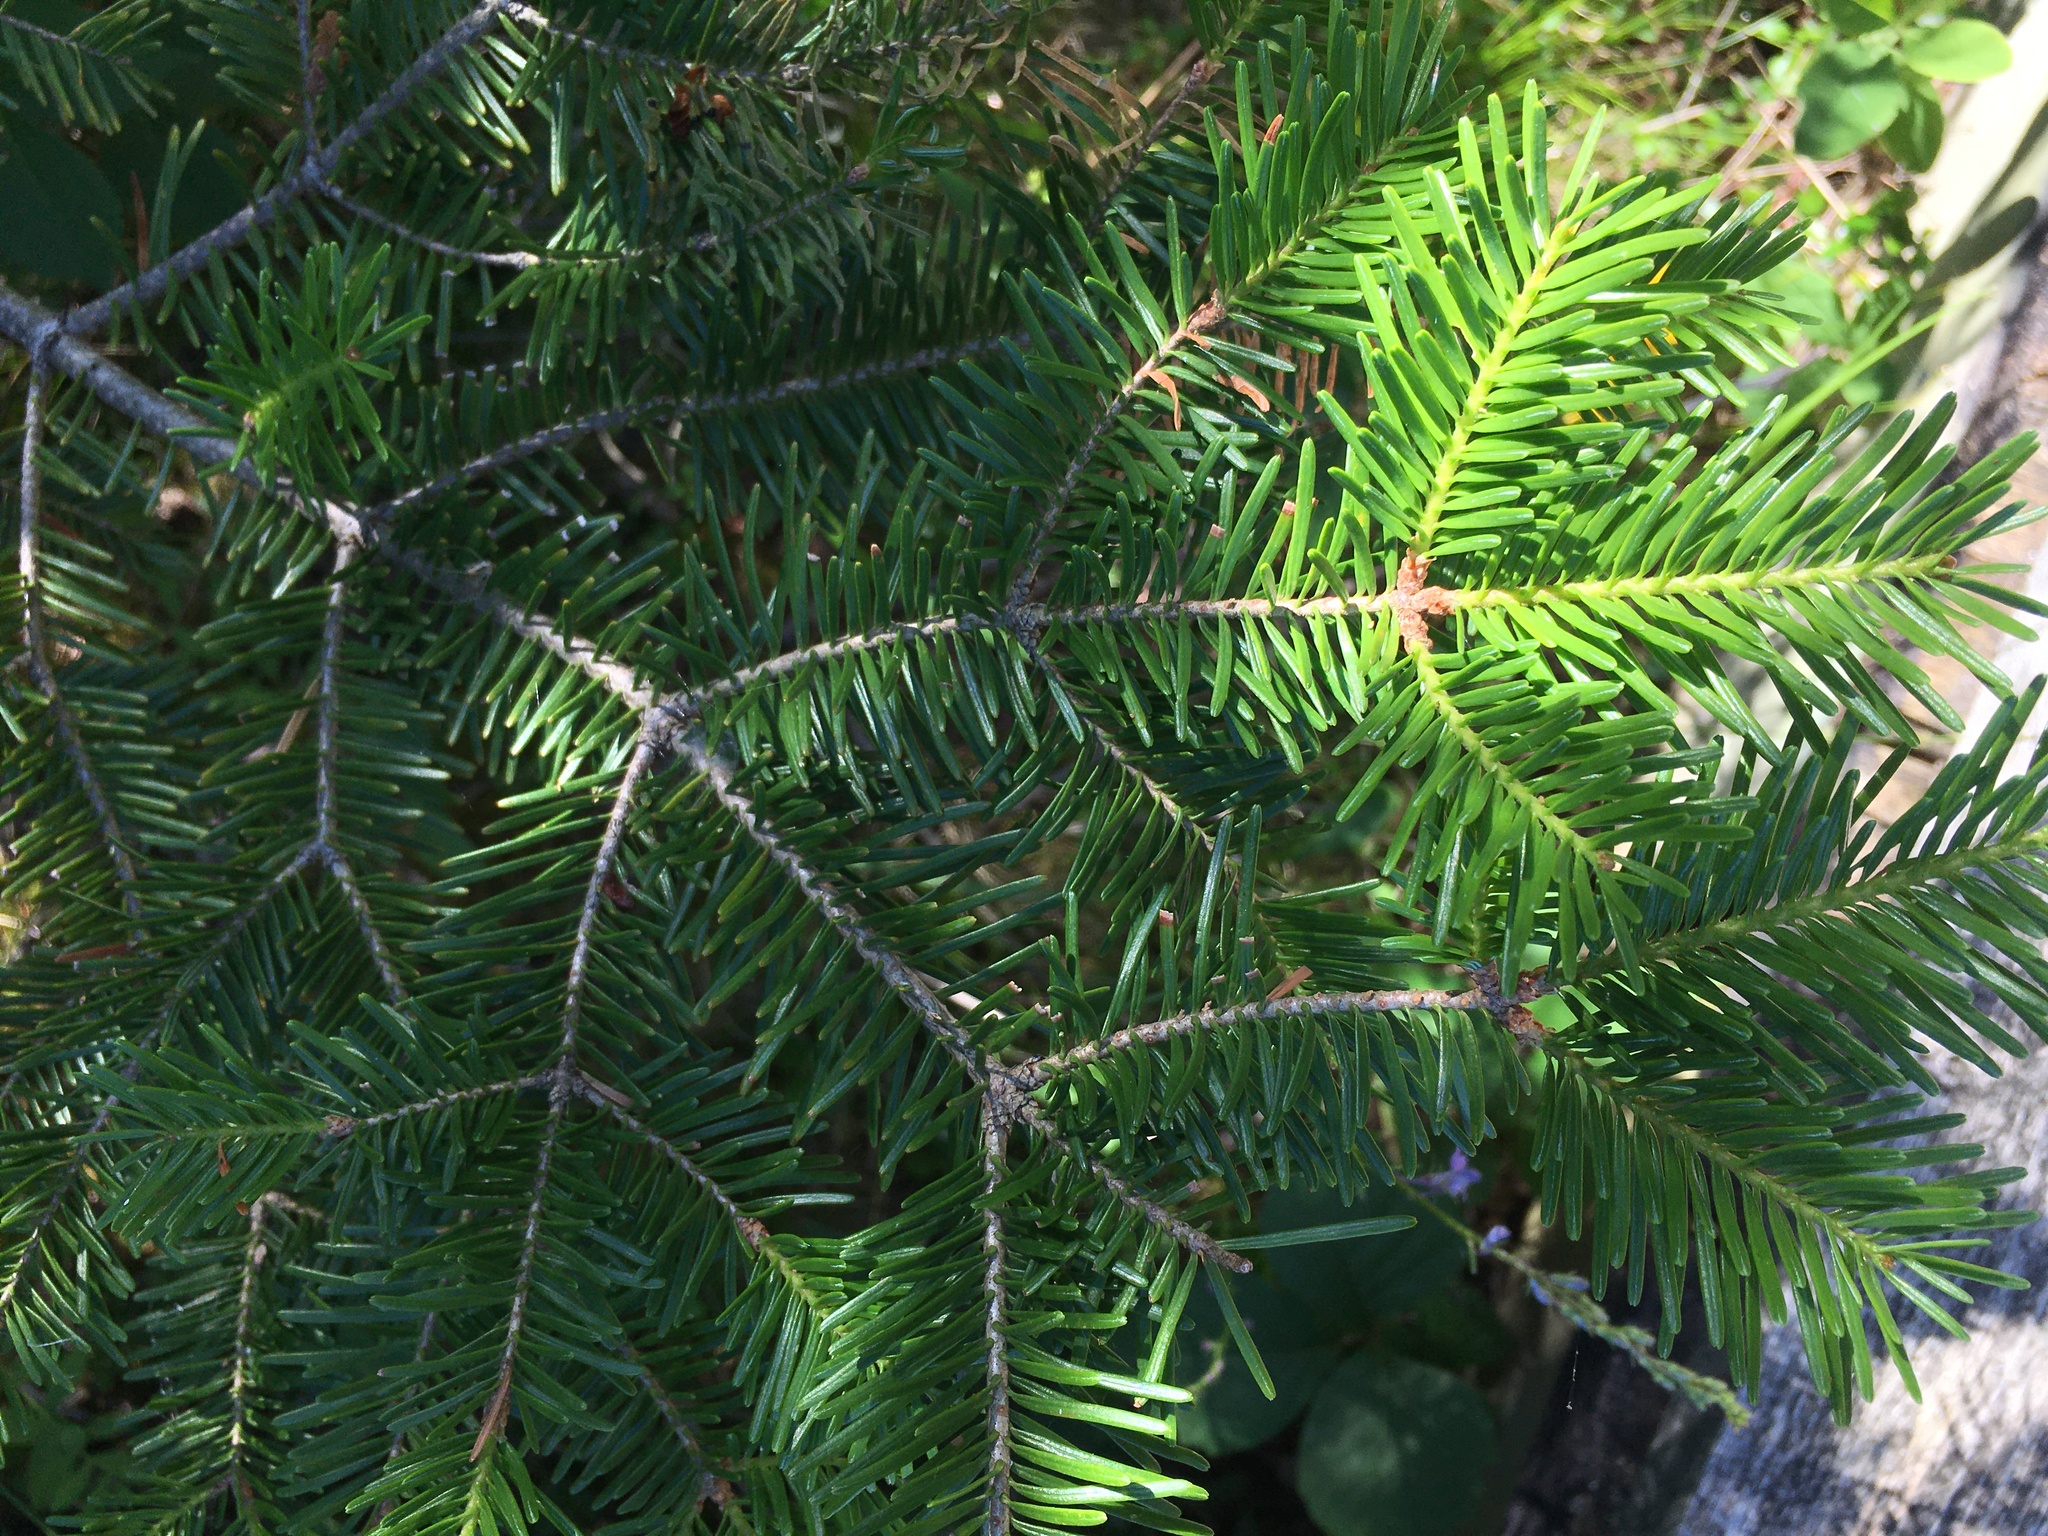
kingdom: Plantae
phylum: Tracheophyta
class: Pinopsida
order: Pinales
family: Pinaceae
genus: Abies
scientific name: Abies balsamea
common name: Balsam fir
